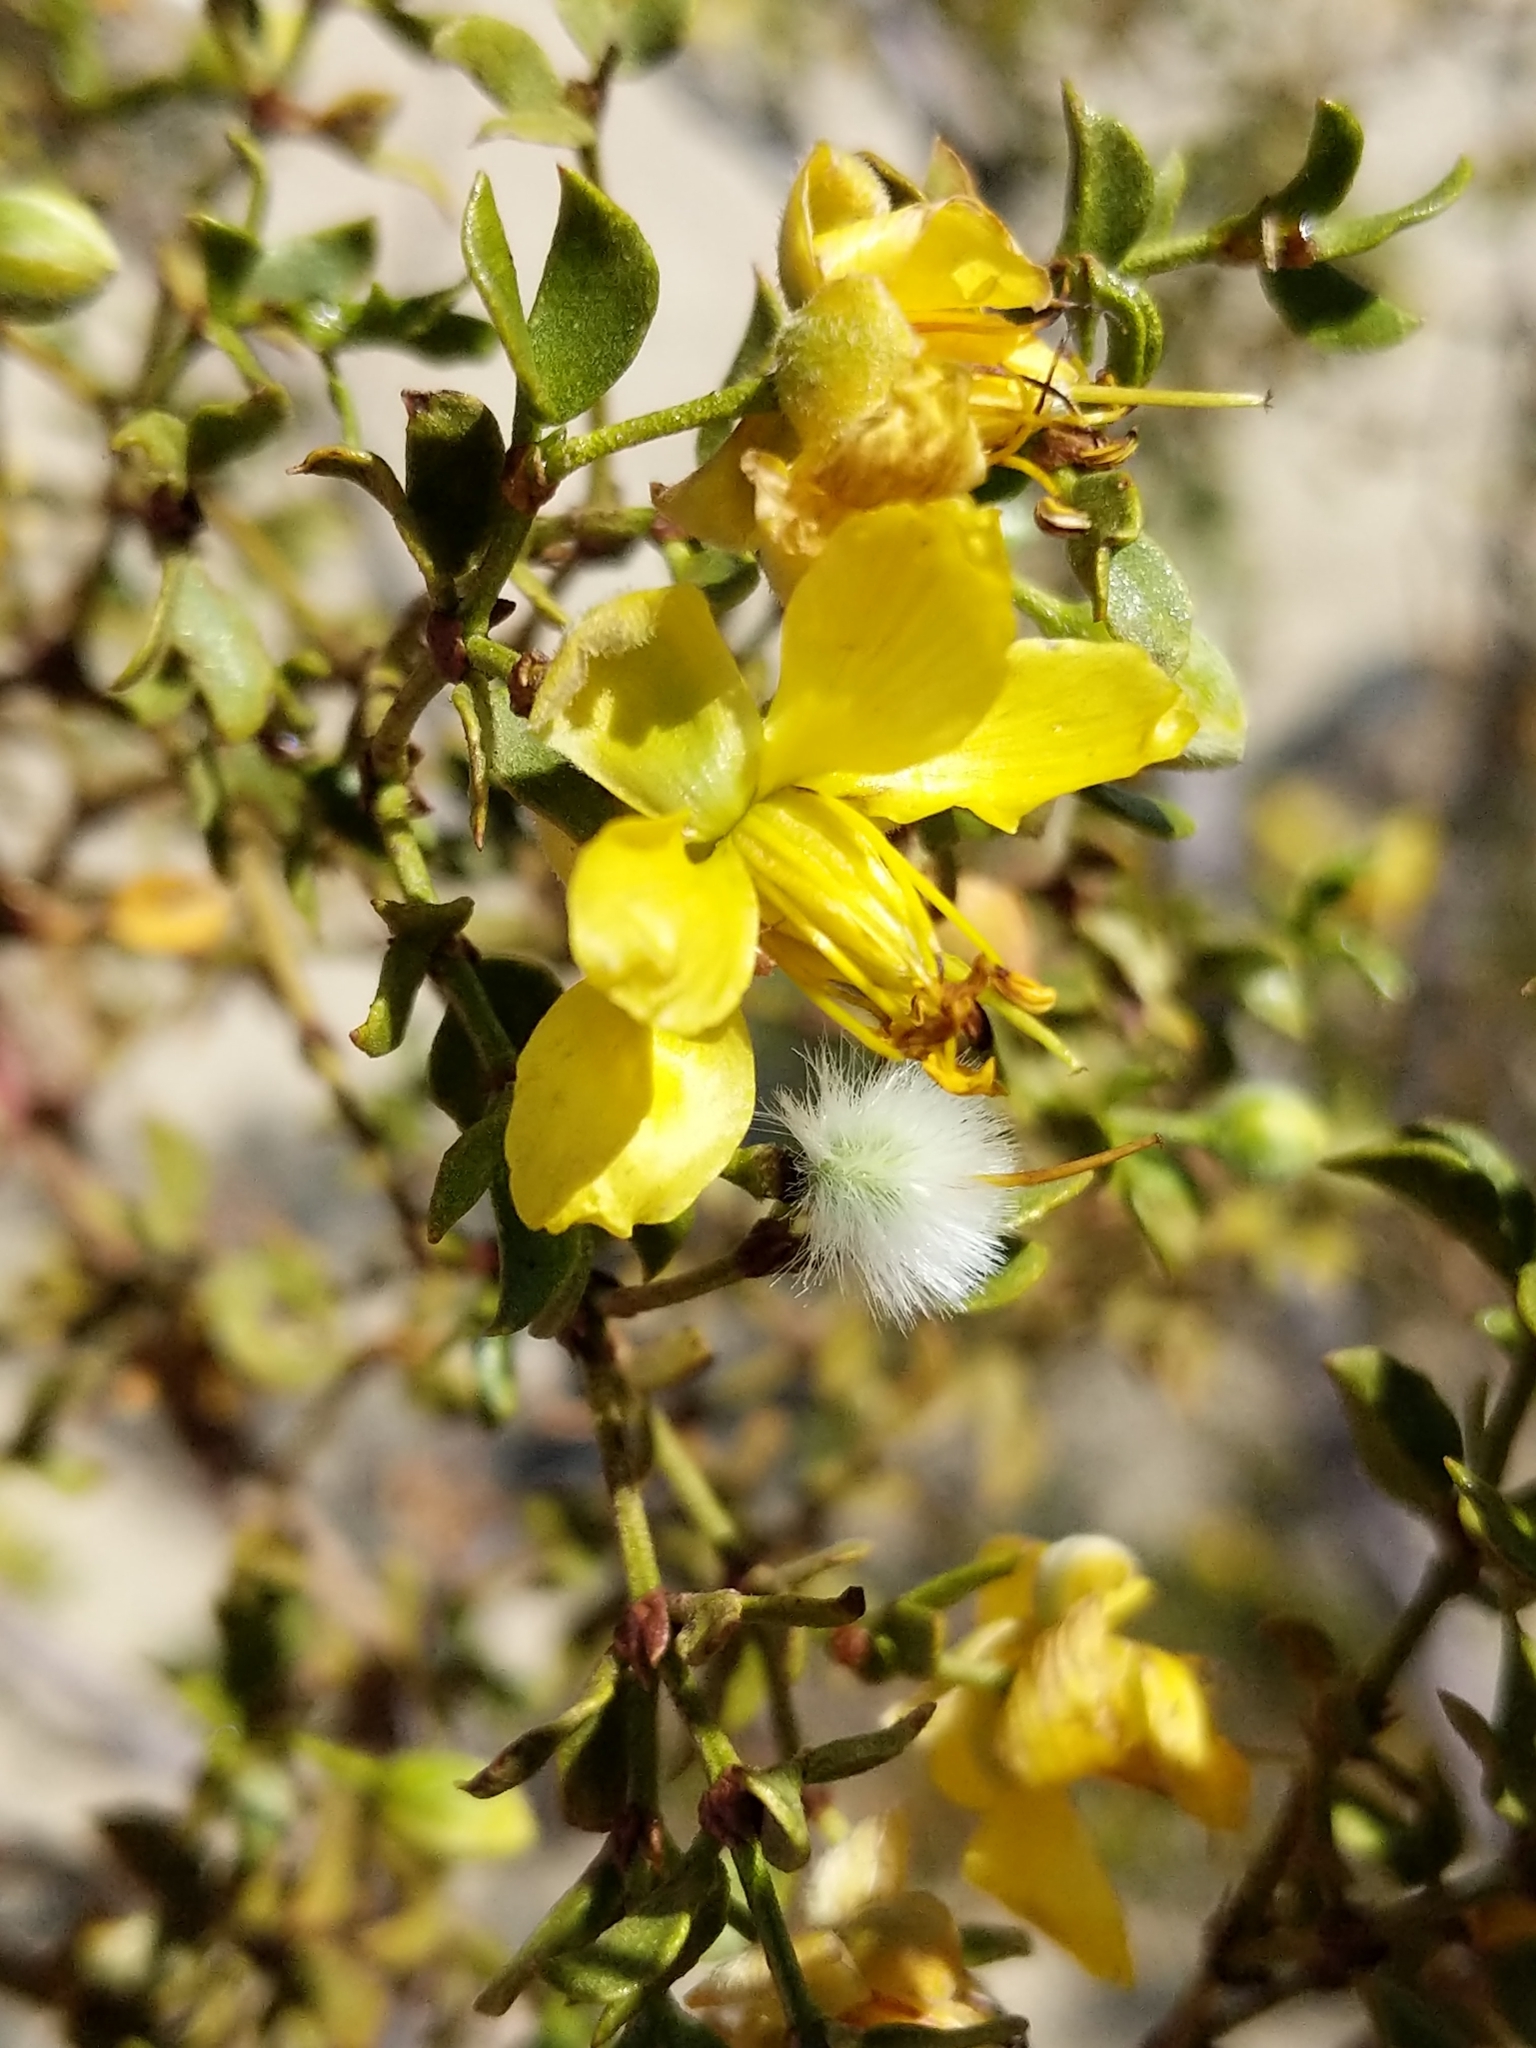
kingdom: Plantae
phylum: Tracheophyta
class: Magnoliopsida
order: Zygophyllales
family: Zygophyllaceae
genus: Larrea
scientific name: Larrea tridentata
